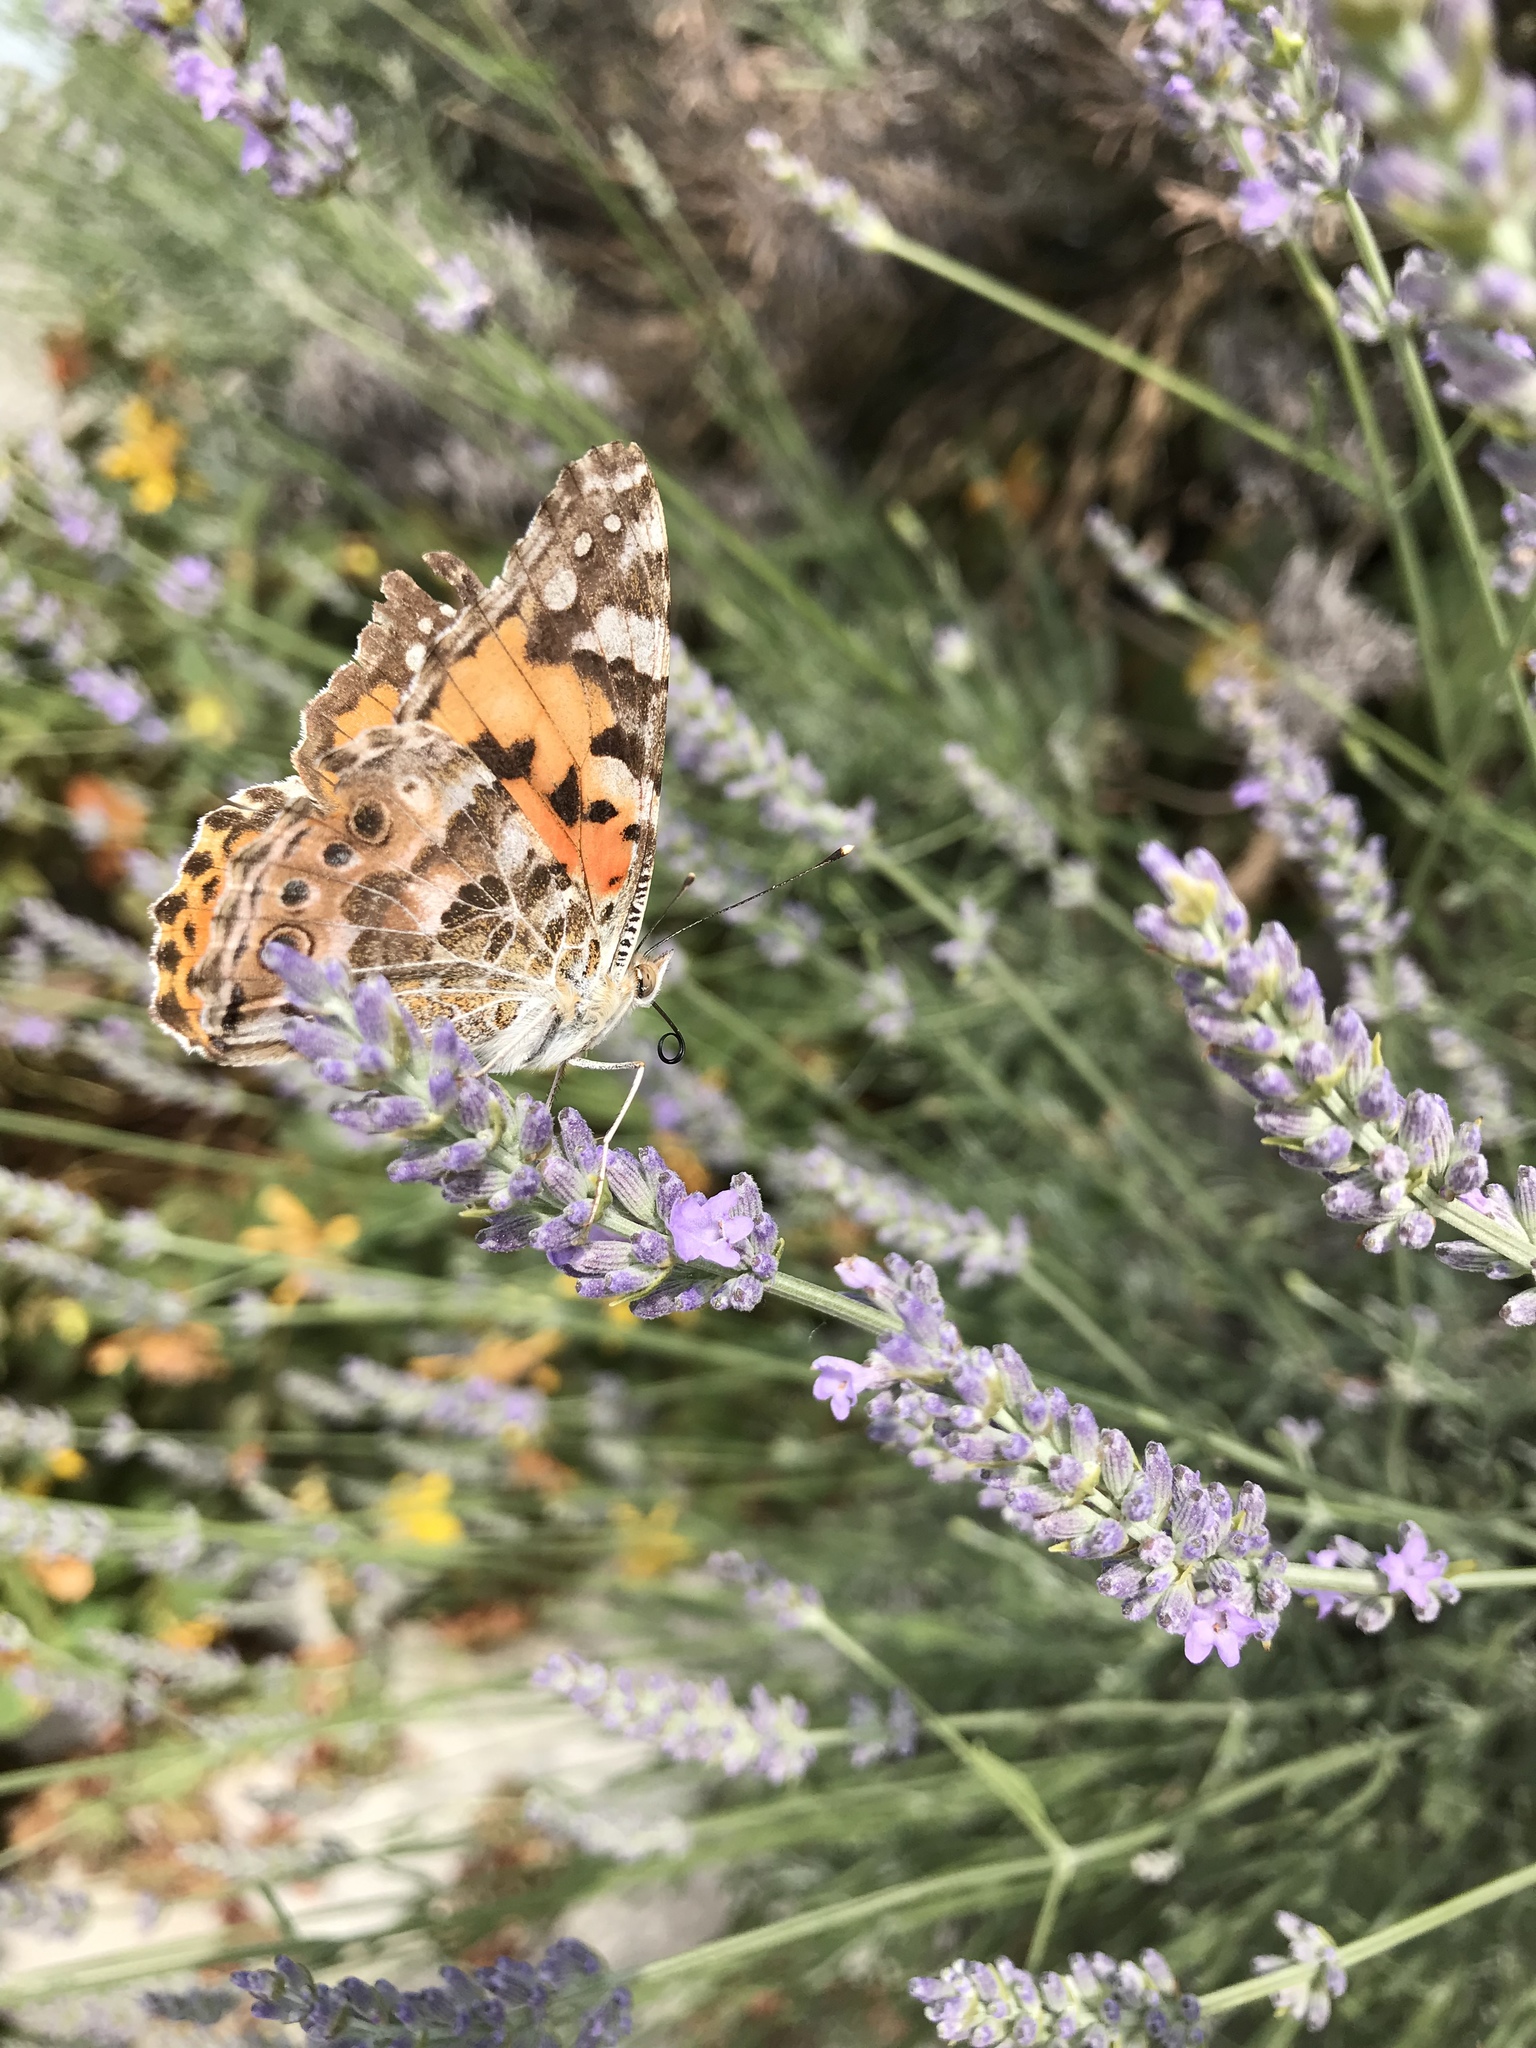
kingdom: Animalia
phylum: Arthropoda
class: Insecta
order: Lepidoptera
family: Nymphalidae
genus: Vanessa
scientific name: Vanessa cardui
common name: Painted lady
